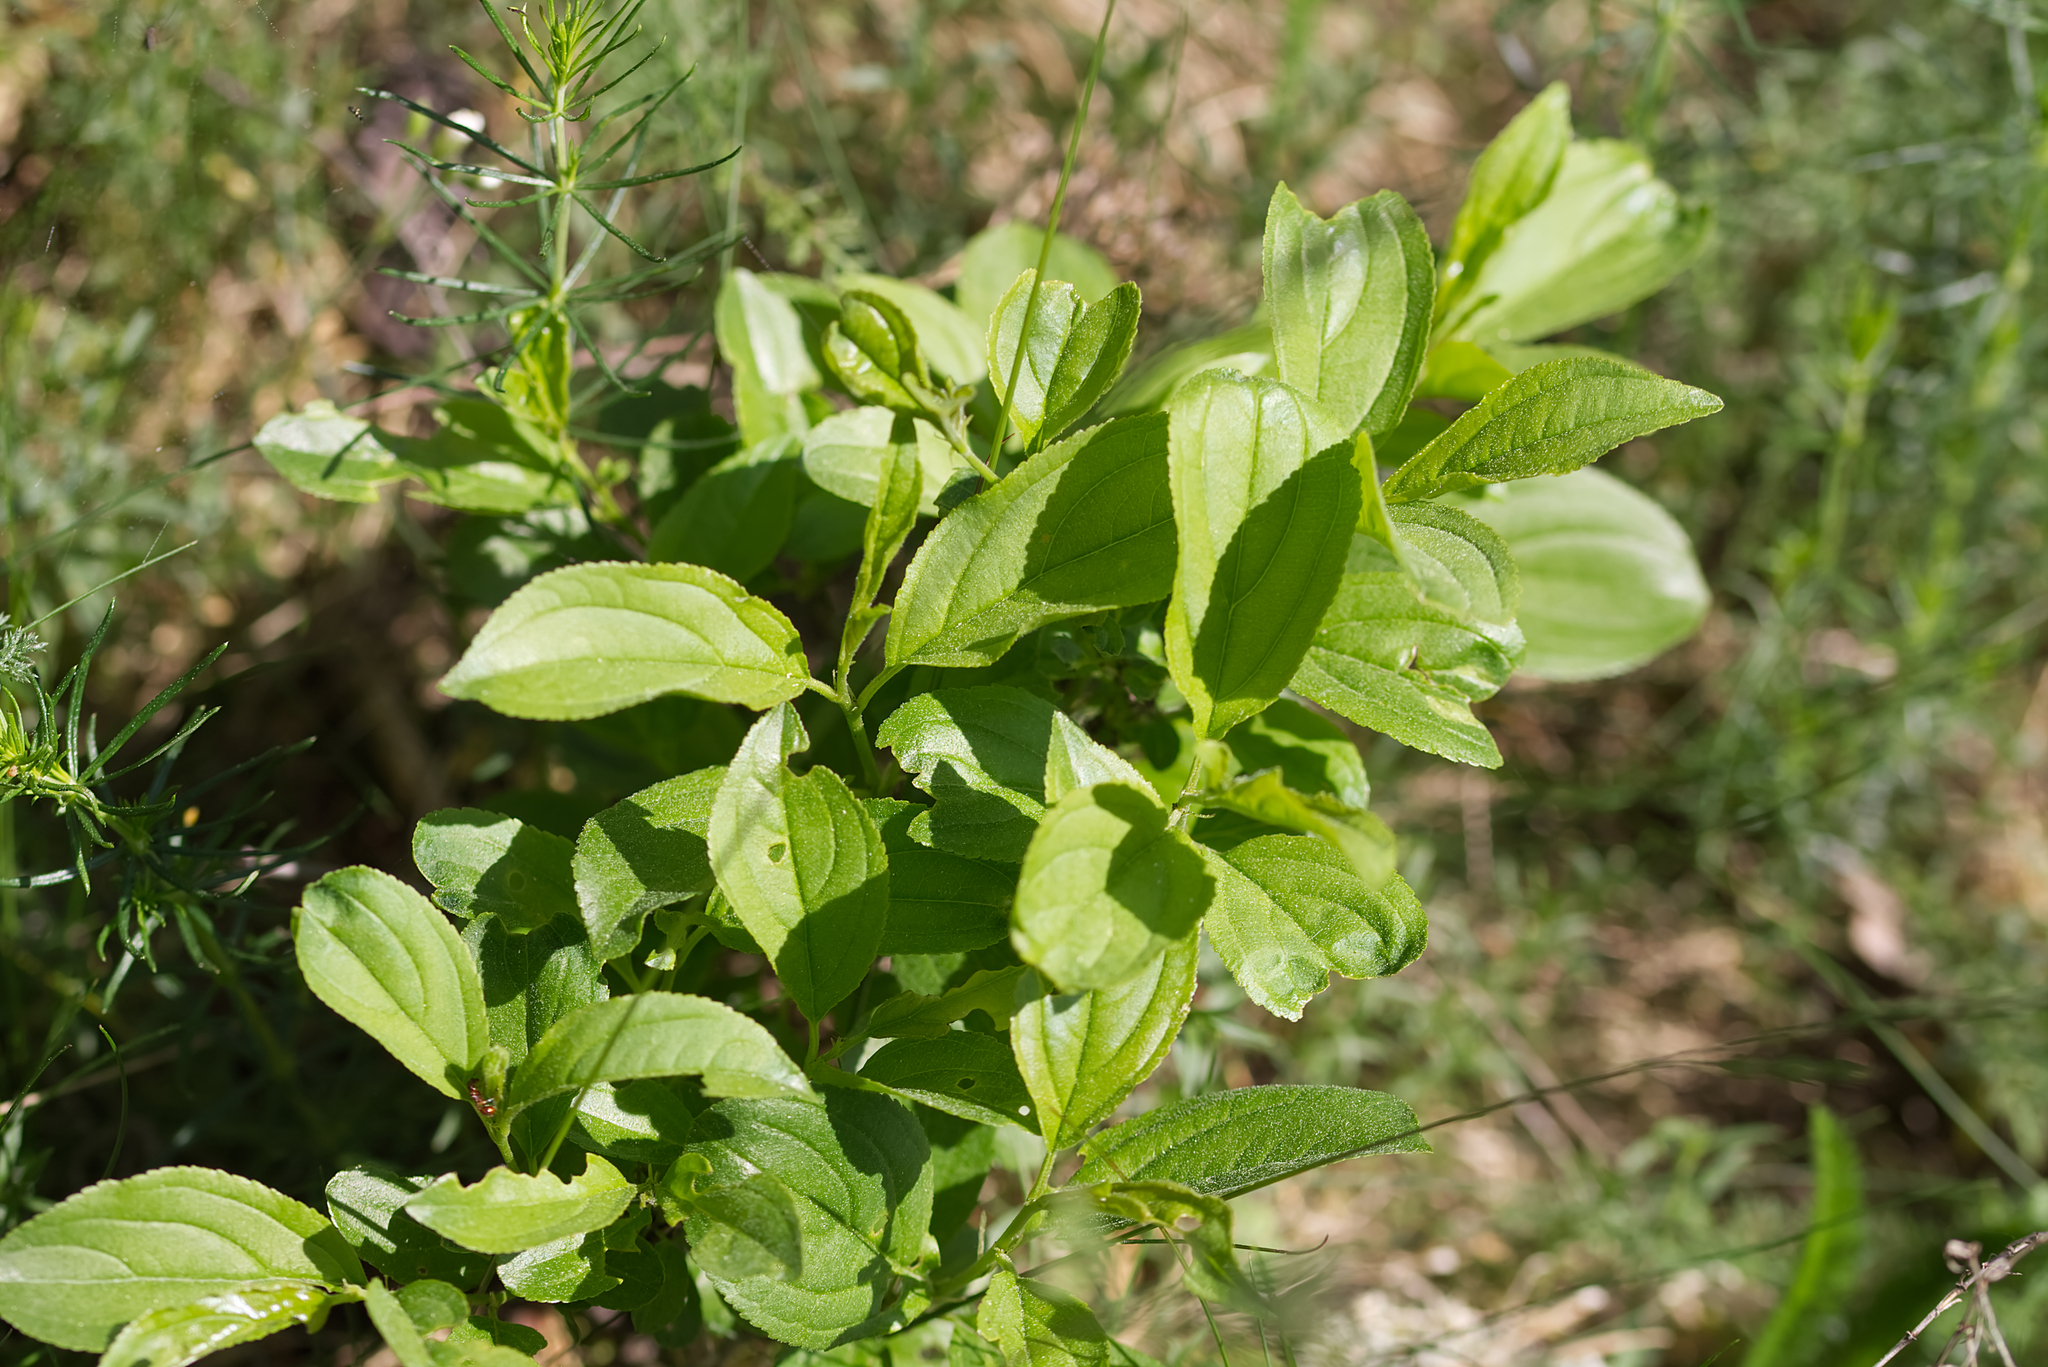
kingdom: Plantae
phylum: Tracheophyta
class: Magnoliopsida
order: Rosales
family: Rhamnaceae
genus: Rhamnus
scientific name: Rhamnus cathartica
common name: Common buckthorn
